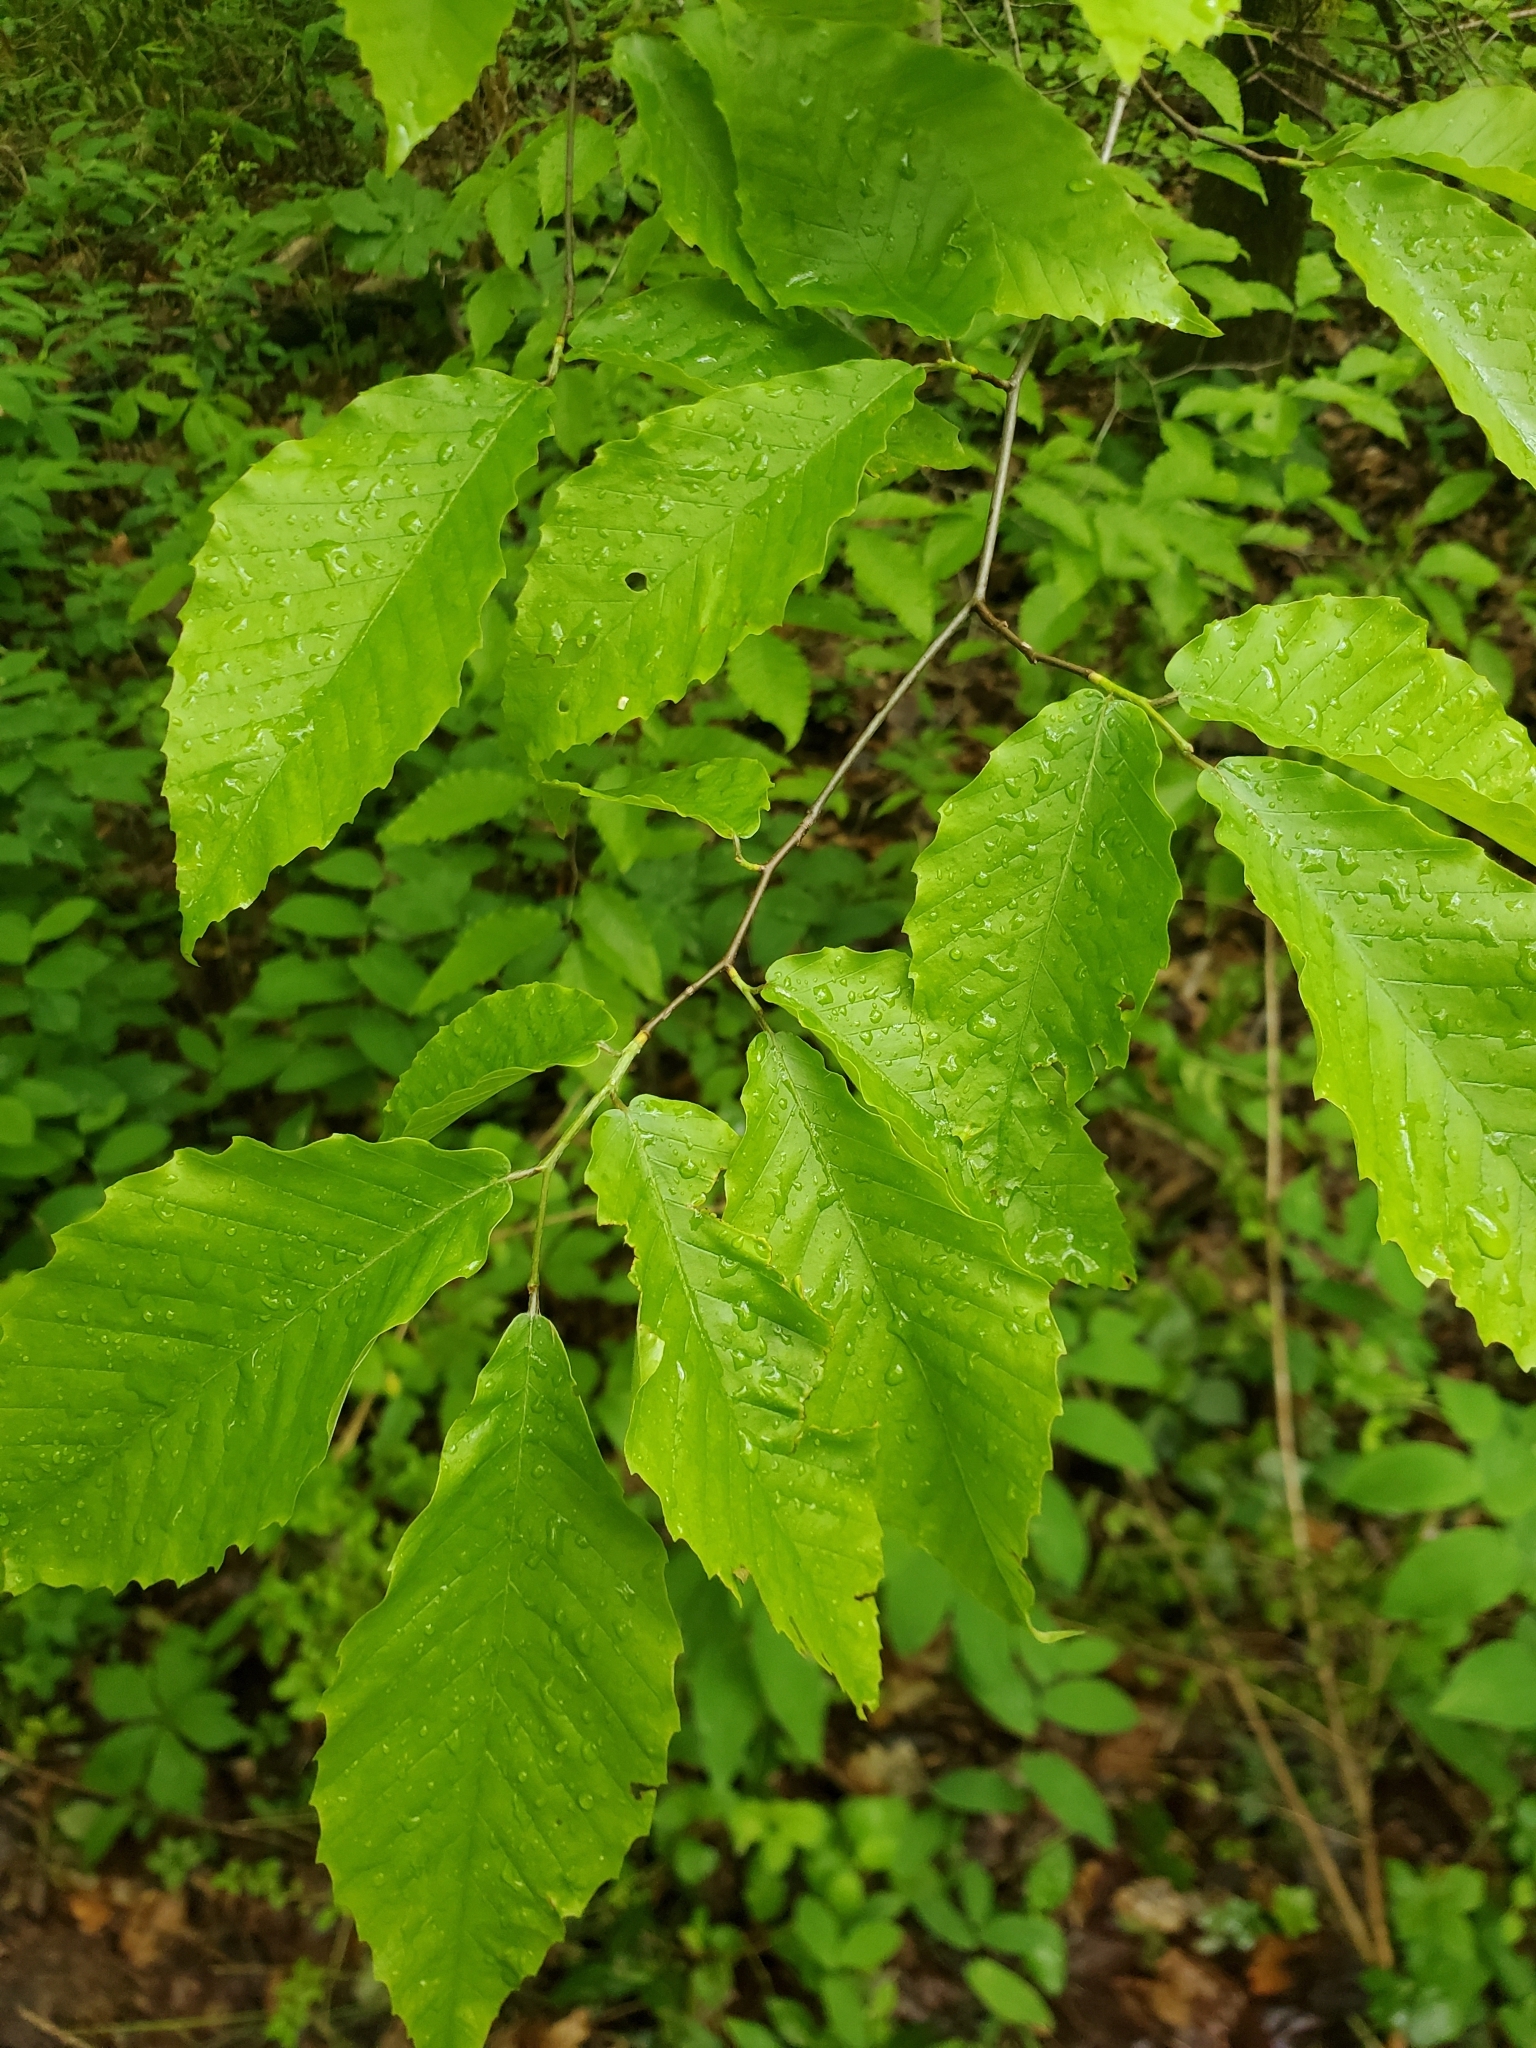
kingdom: Plantae
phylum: Tracheophyta
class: Magnoliopsida
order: Fagales
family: Fagaceae
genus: Fagus
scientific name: Fagus grandifolia
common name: American beech
